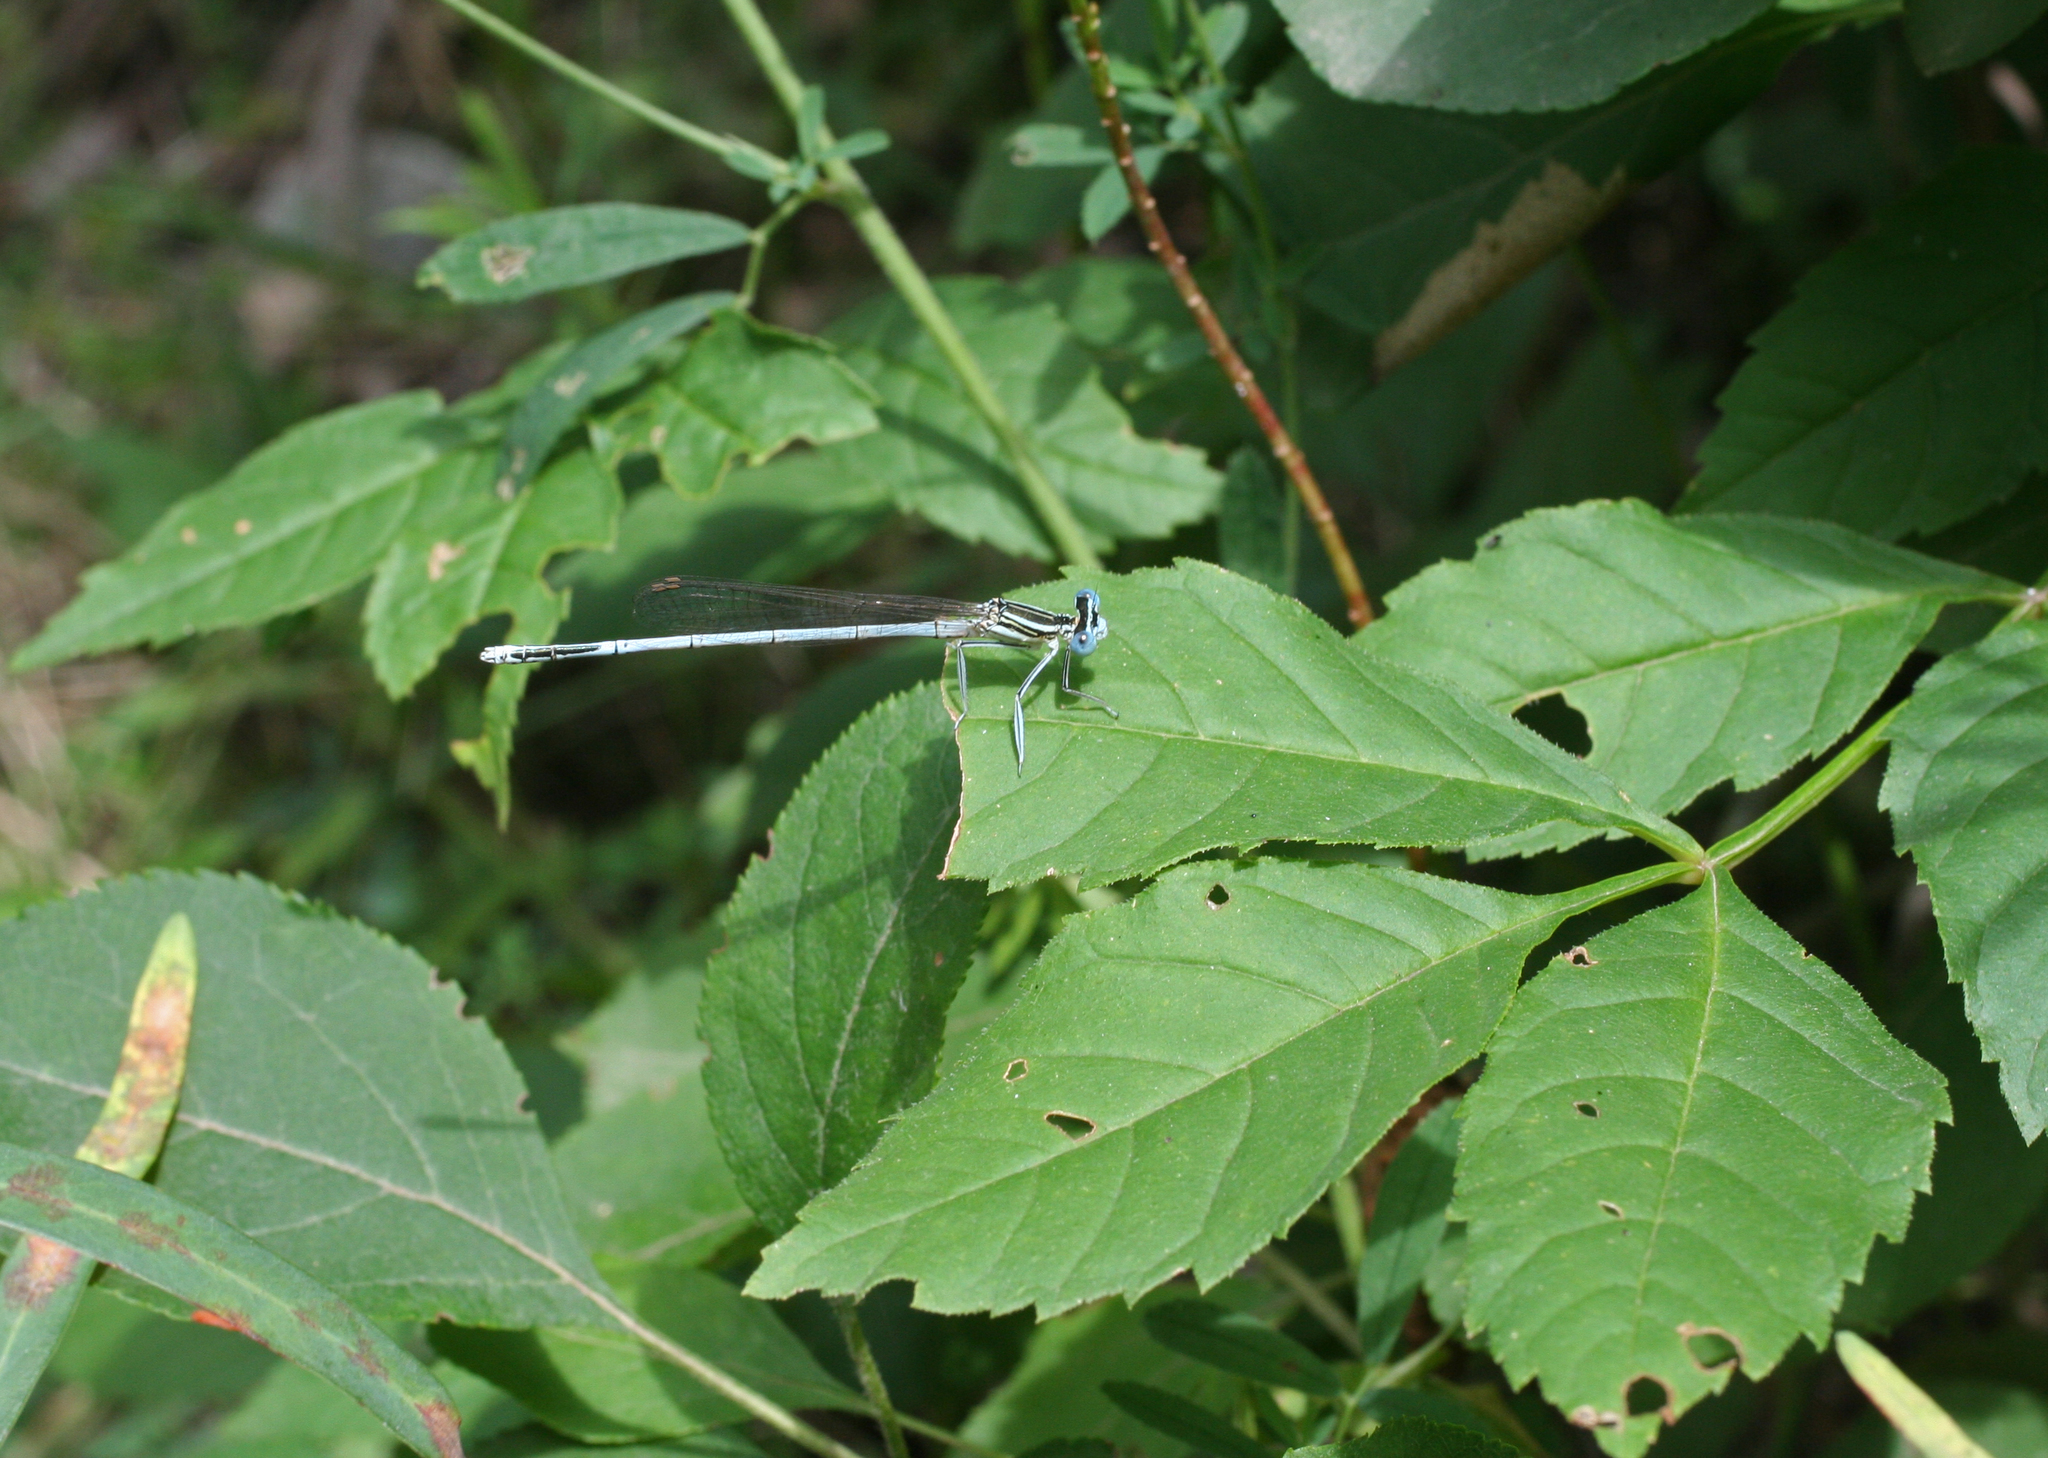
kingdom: Animalia
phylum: Arthropoda
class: Insecta
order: Odonata
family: Platycnemididae
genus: Platycnemis
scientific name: Platycnemis pennipes
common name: White-legged damselfly
